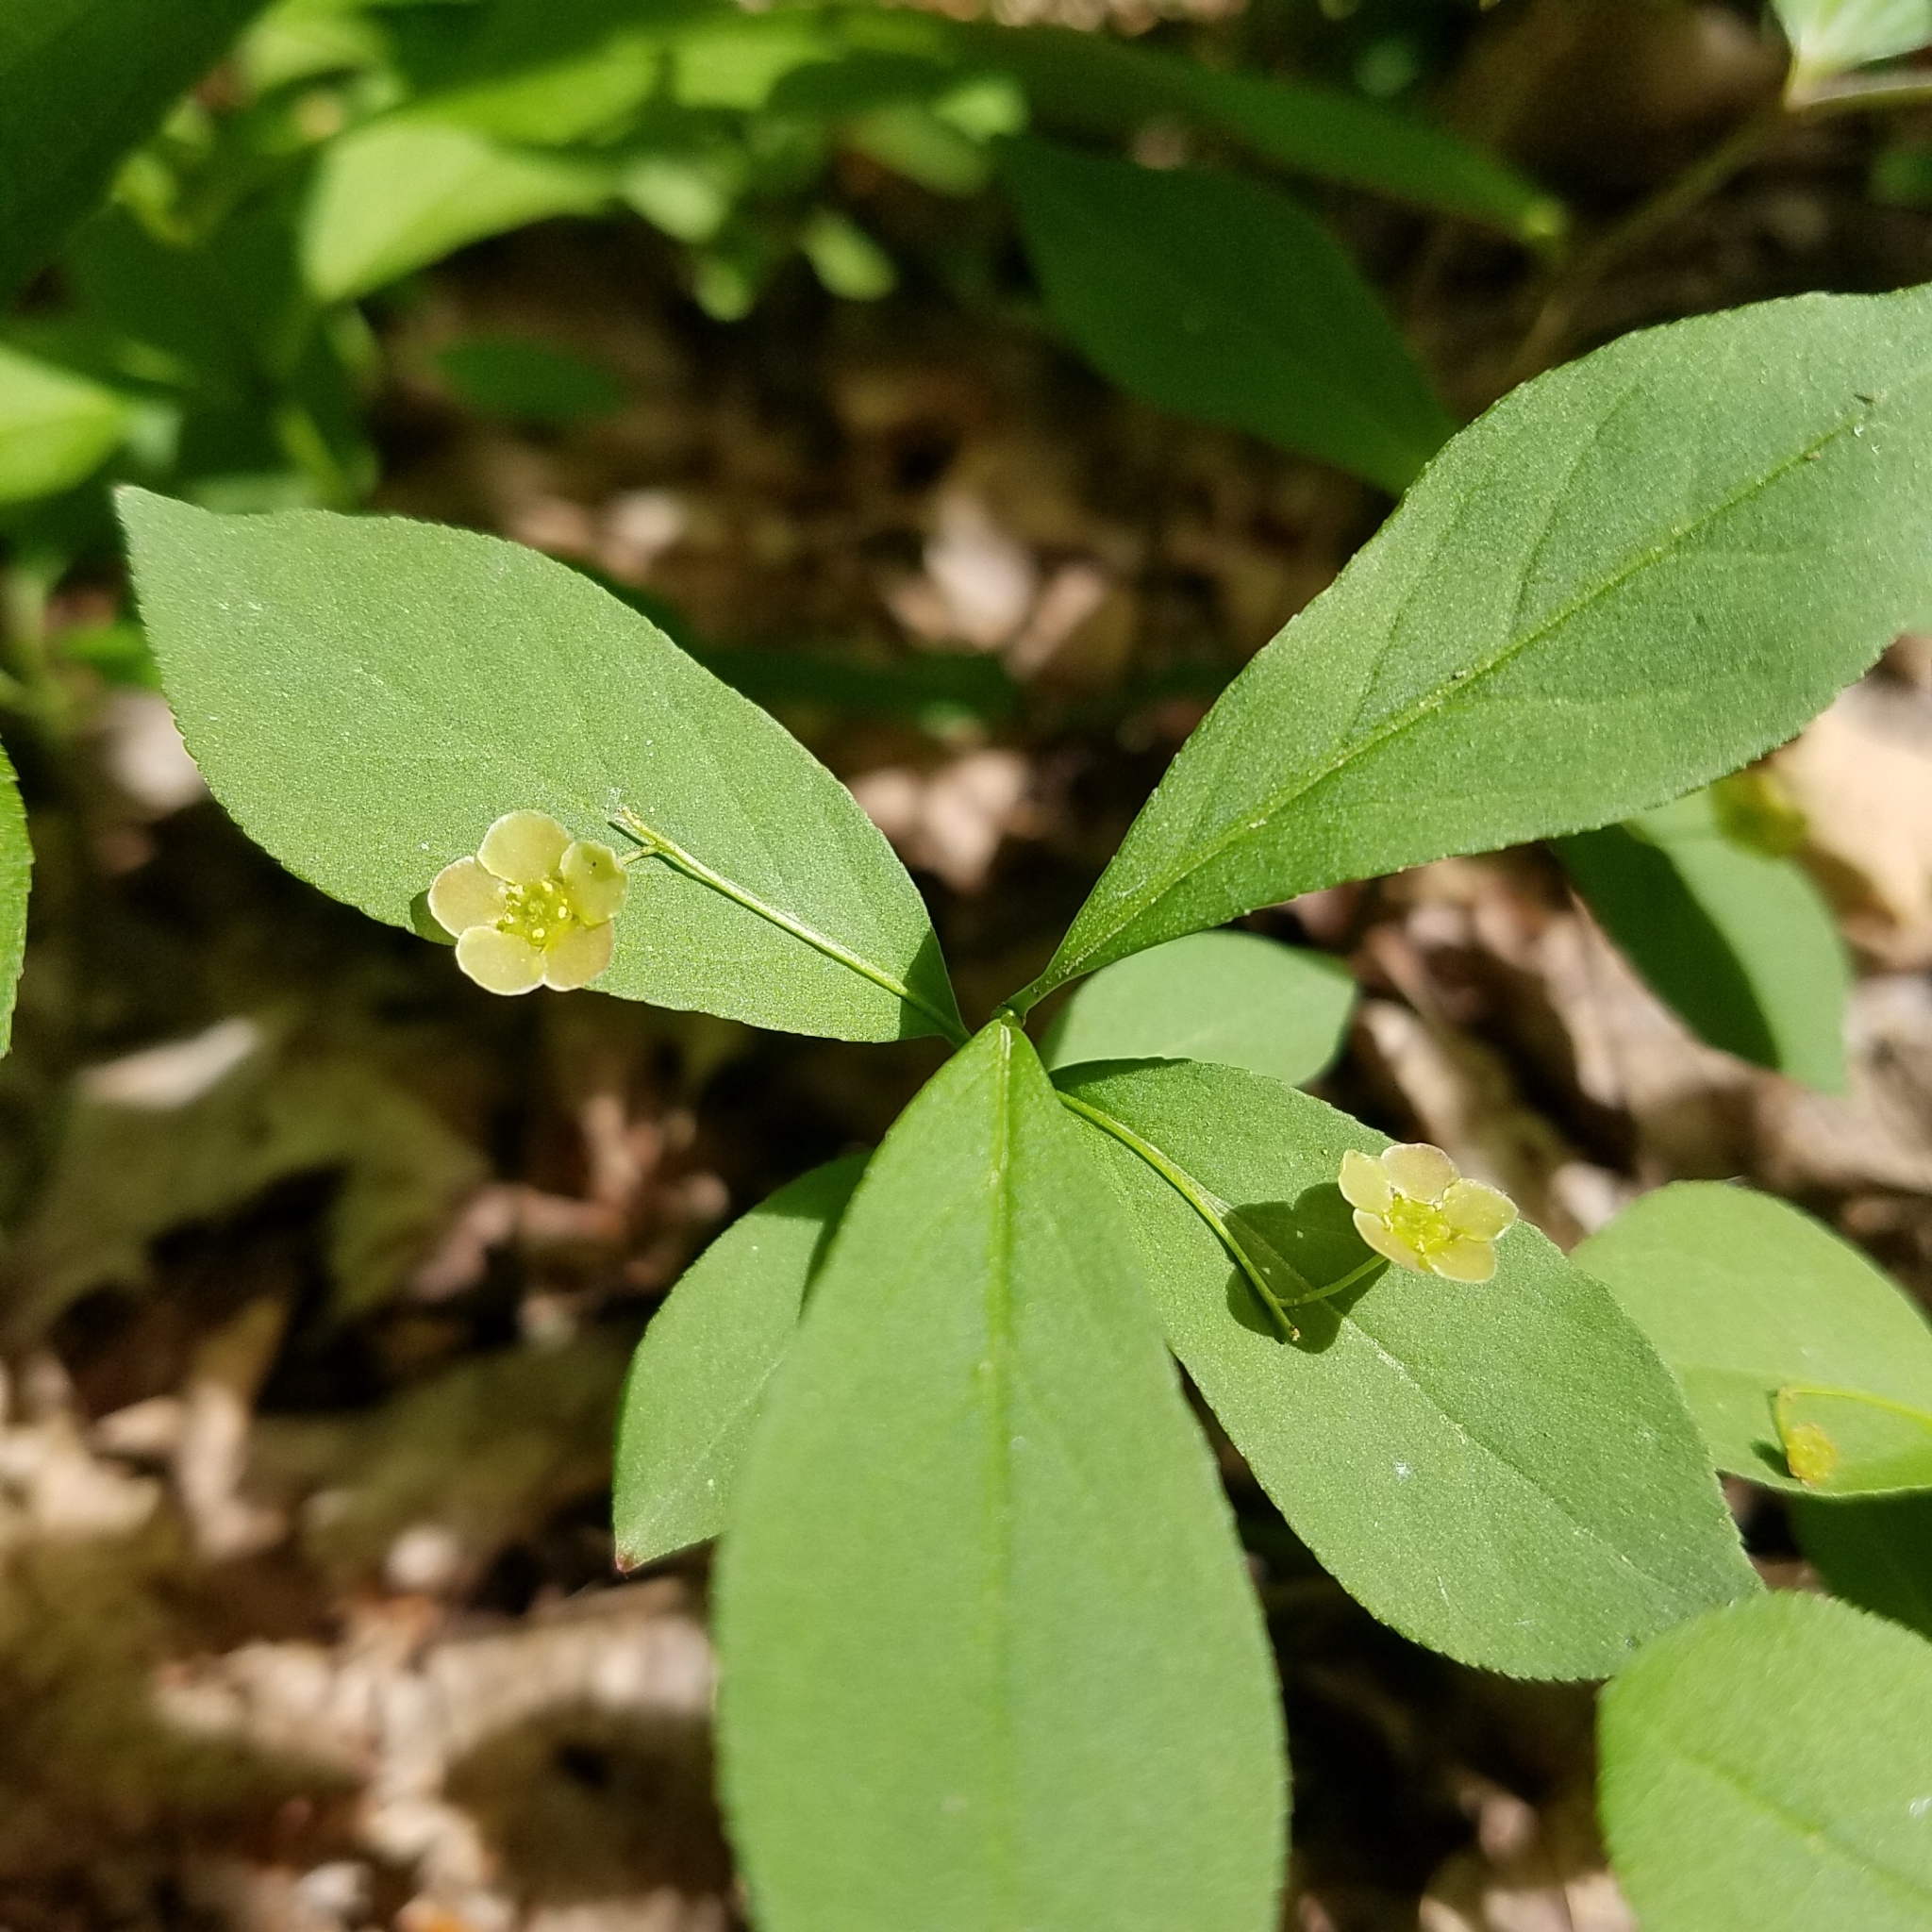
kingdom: Plantae
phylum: Tracheophyta
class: Magnoliopsida
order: Celastrales
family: Celastraceae
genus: Euonymus
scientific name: Euonymus obovatus
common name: Running strawberry-bush
